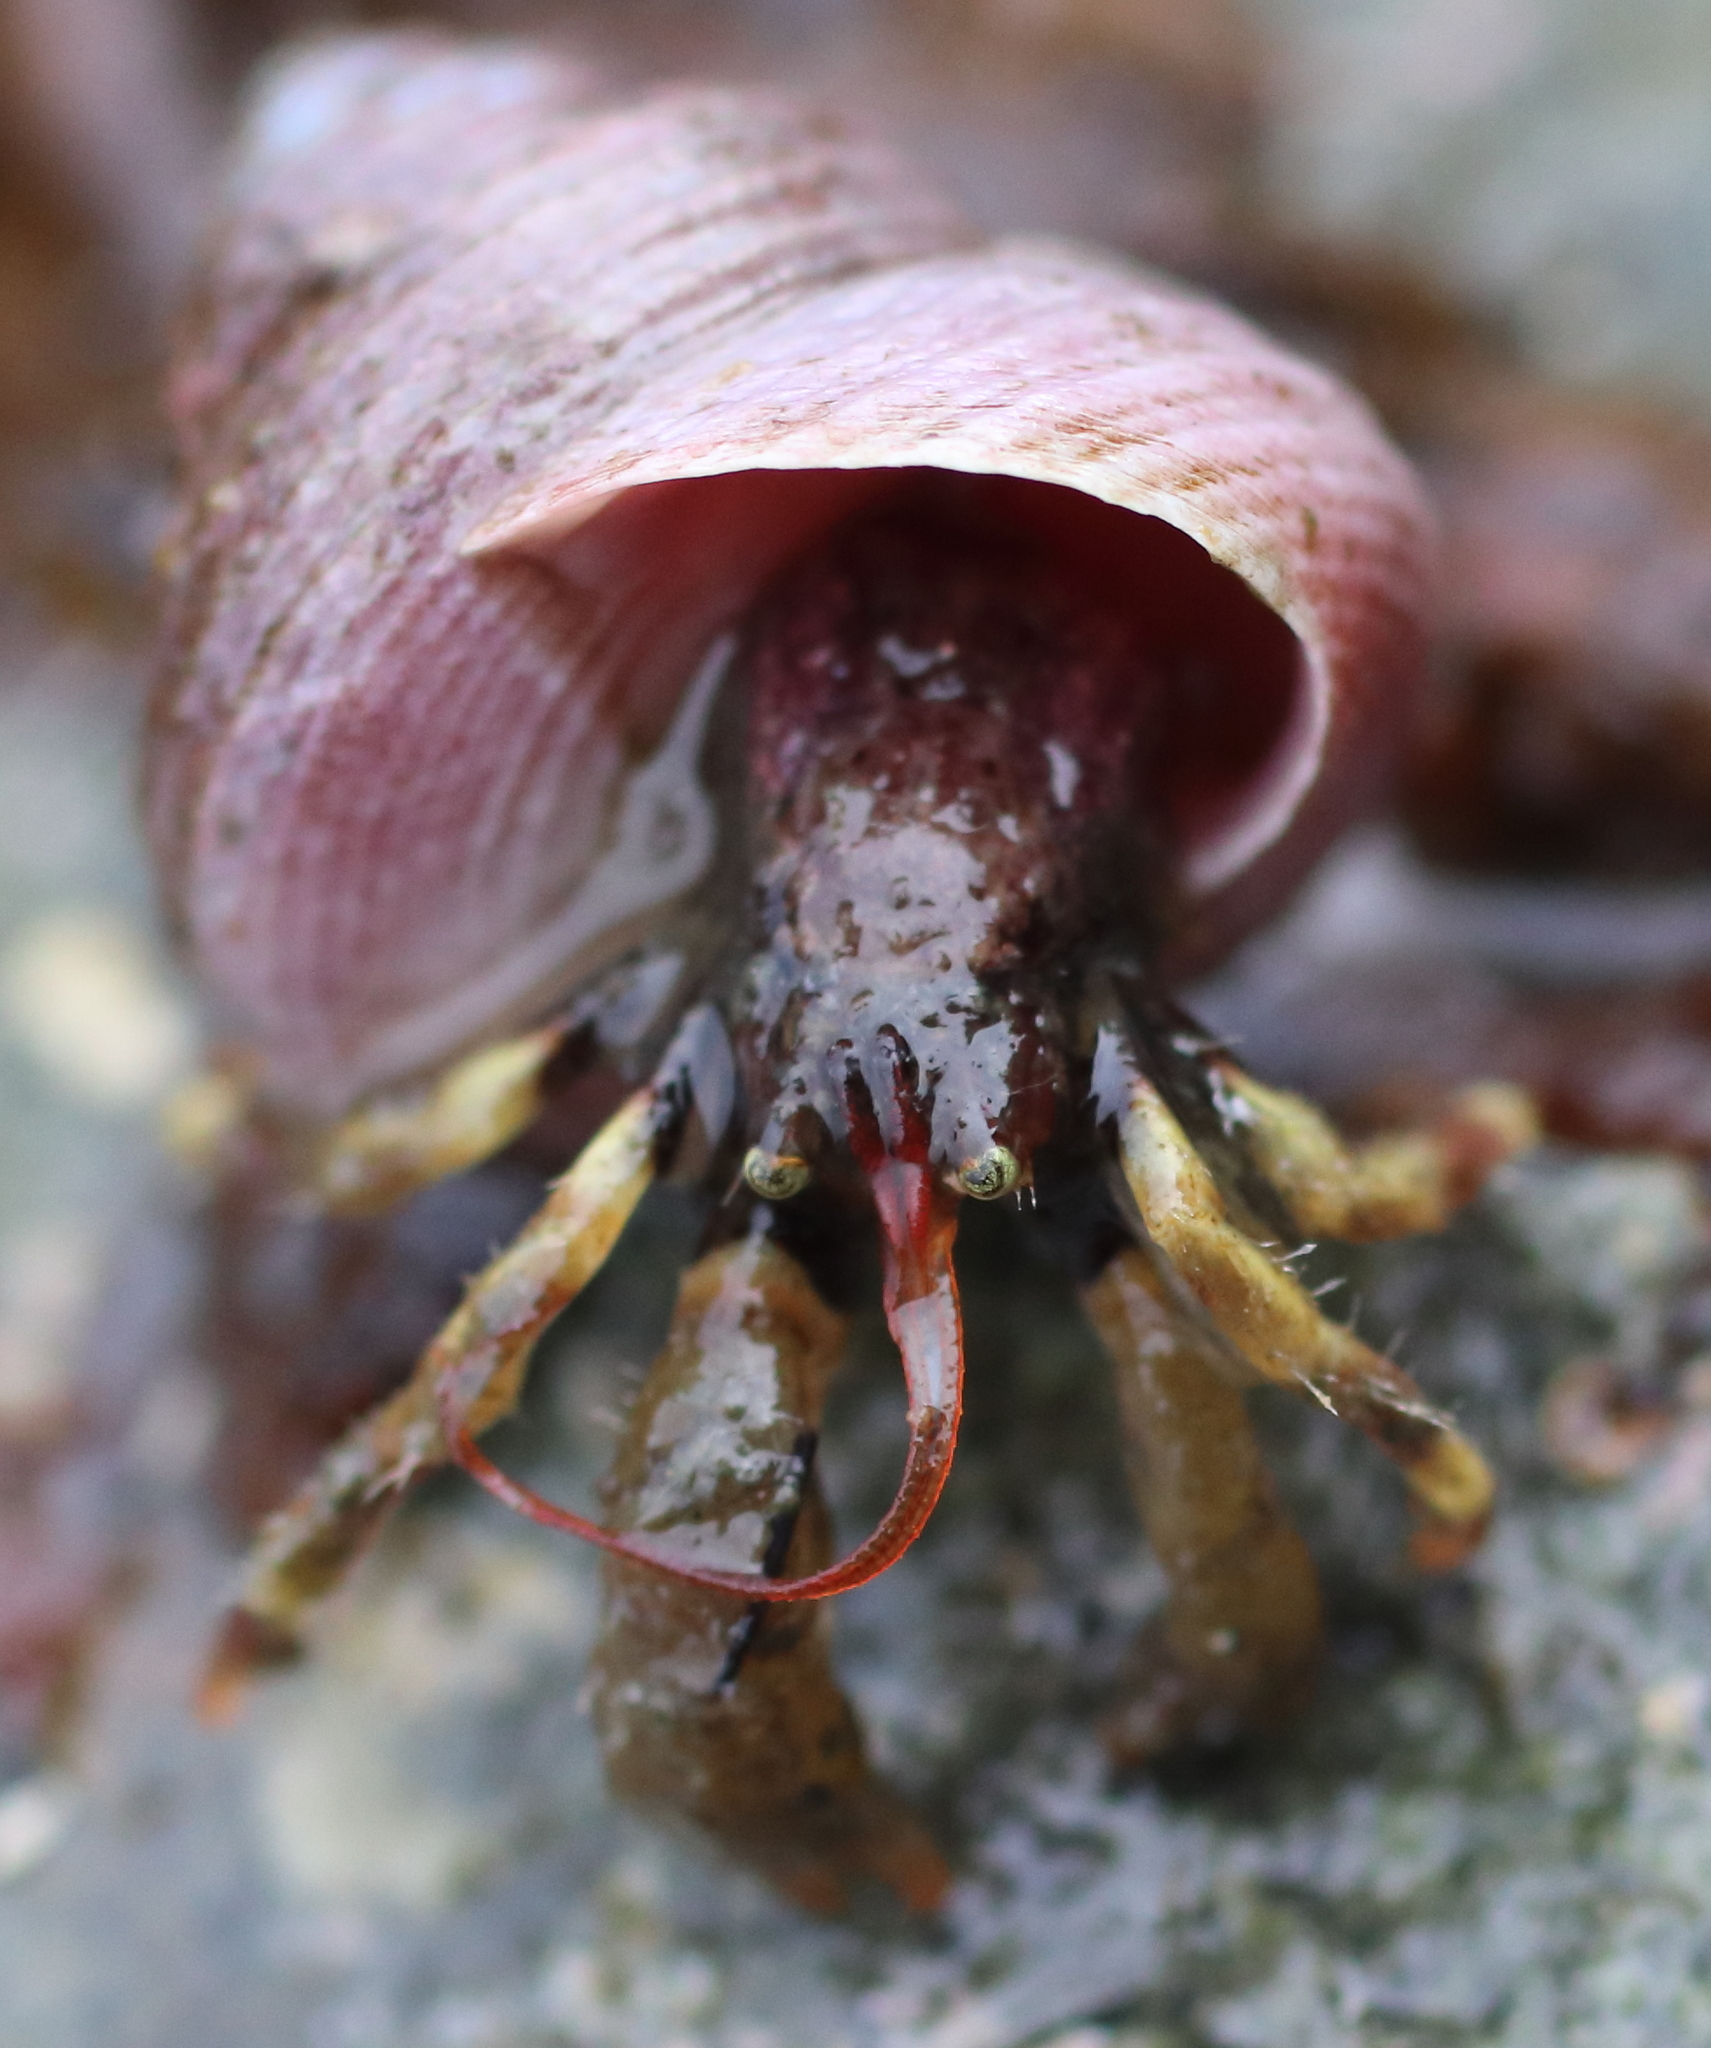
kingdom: Animalia
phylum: Arthropoda
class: Malacostraca
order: Decapoda
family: Paguridae
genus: Pagurus
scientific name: Pagurus caurinus
